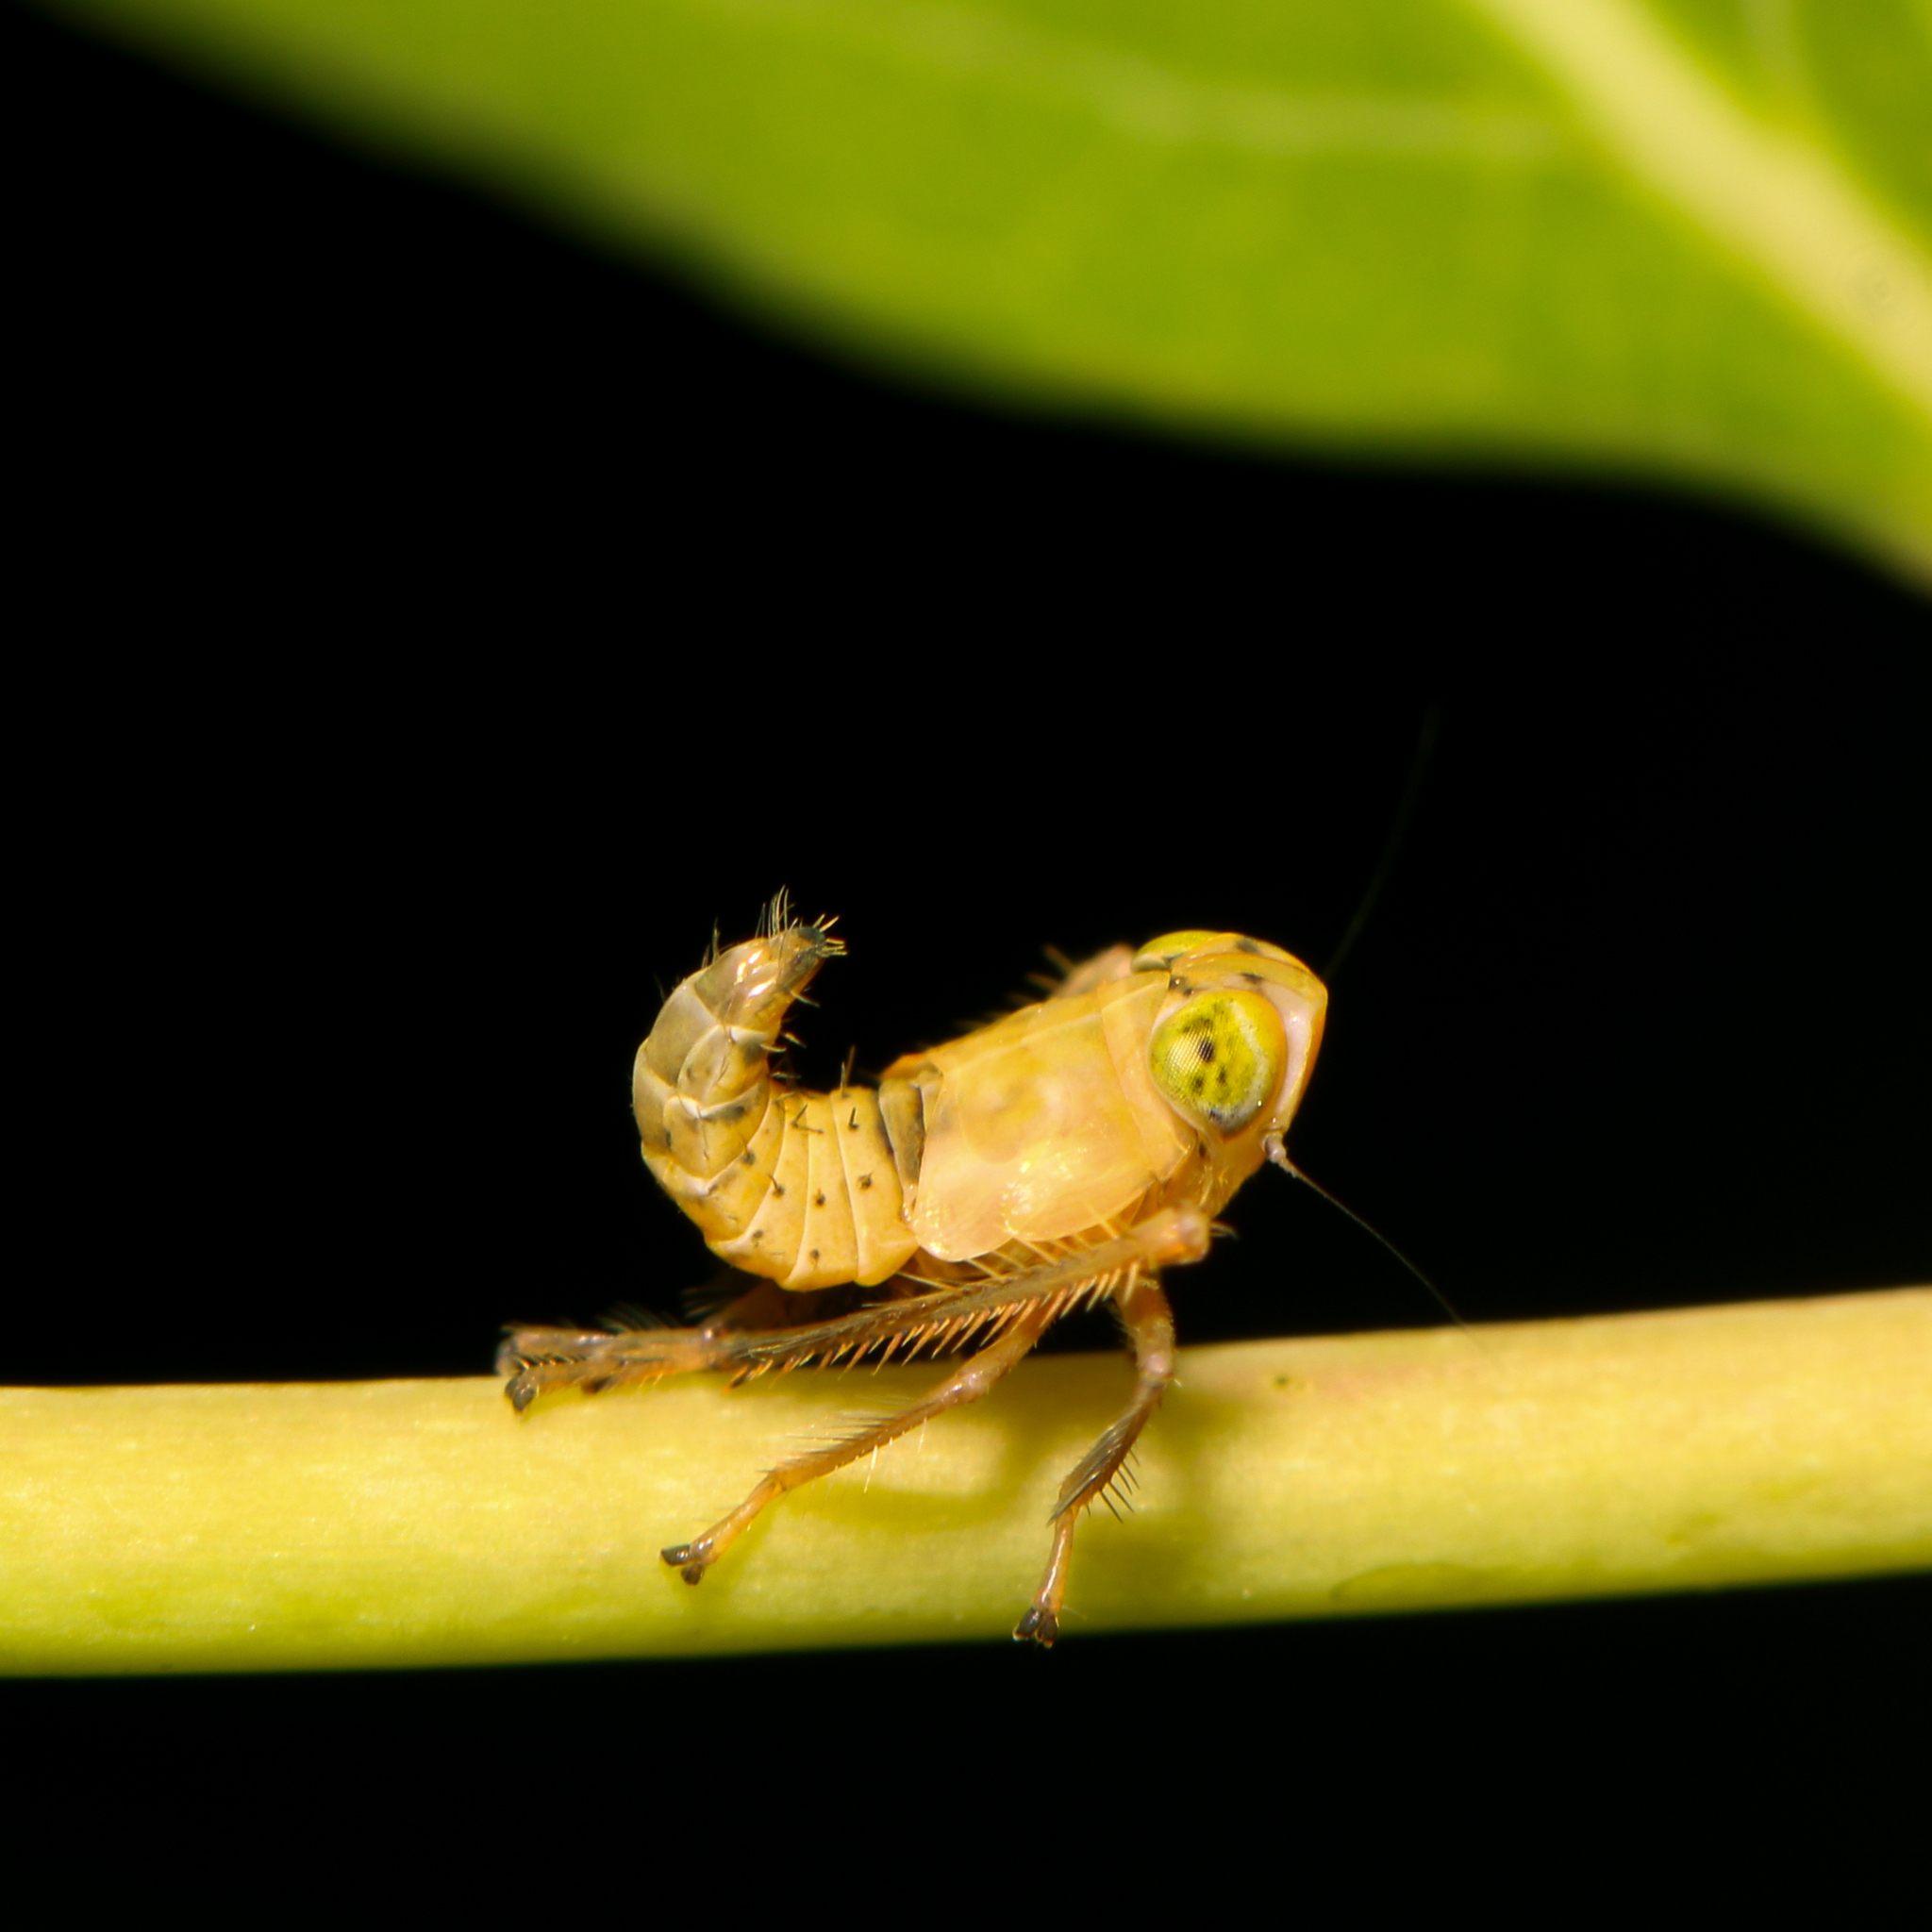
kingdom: Animalia
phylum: Arthropoda
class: Insecta
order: Hemiptera
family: Cicadellidae
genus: Jikradia
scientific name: Jikradia olitoria
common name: Coppery leafhopper
